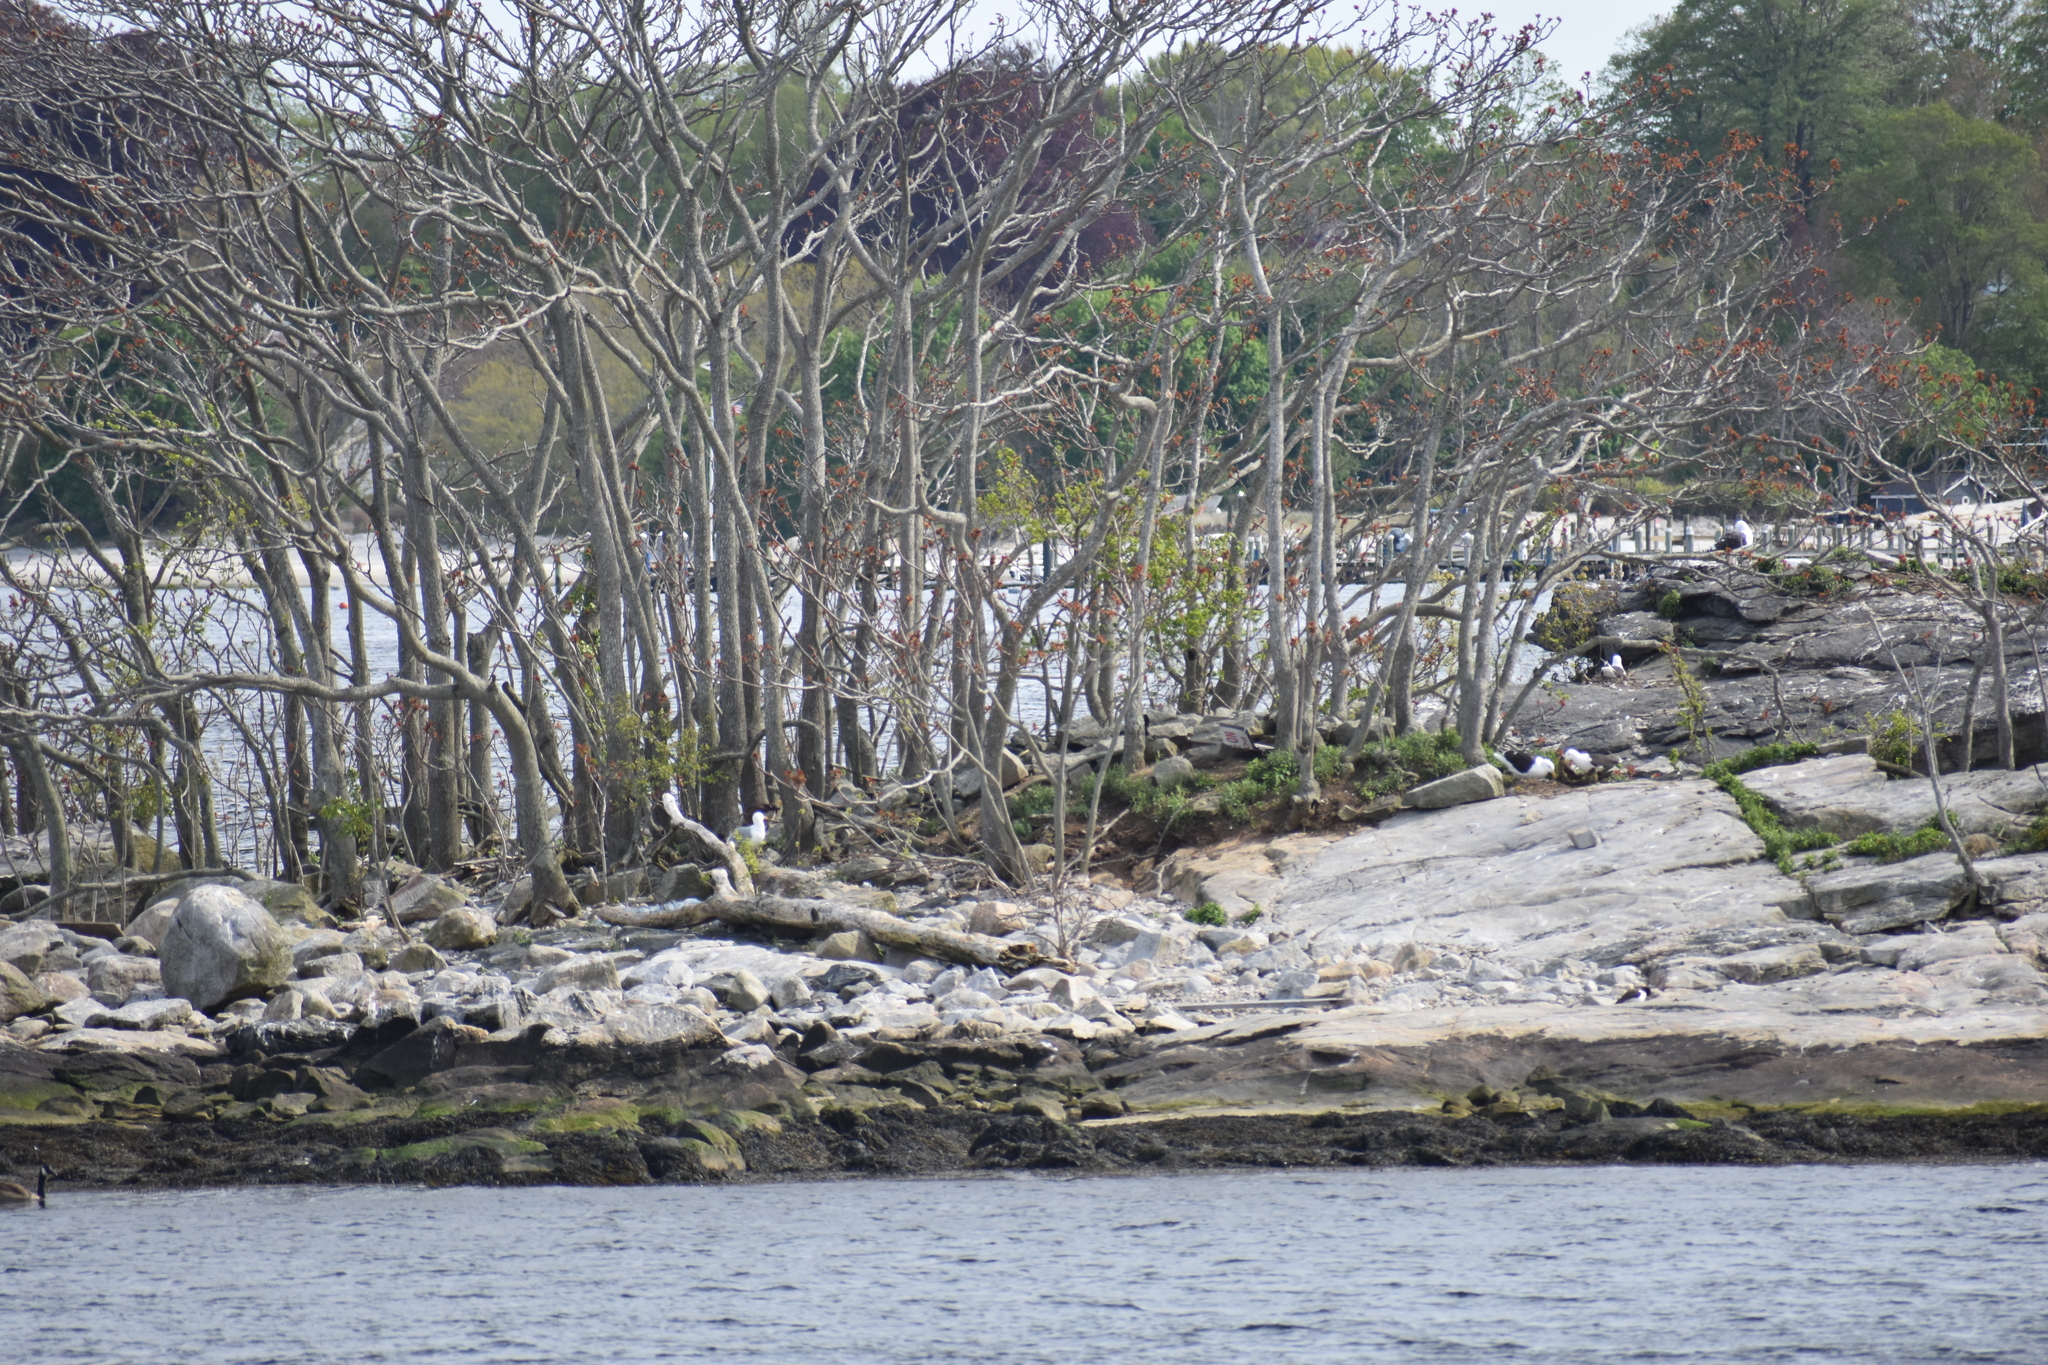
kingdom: Animalia
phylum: Chordata
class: Aves
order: Charadriiformes
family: Laridae
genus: Larus
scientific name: Larus marinus
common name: Great black-backed gull
